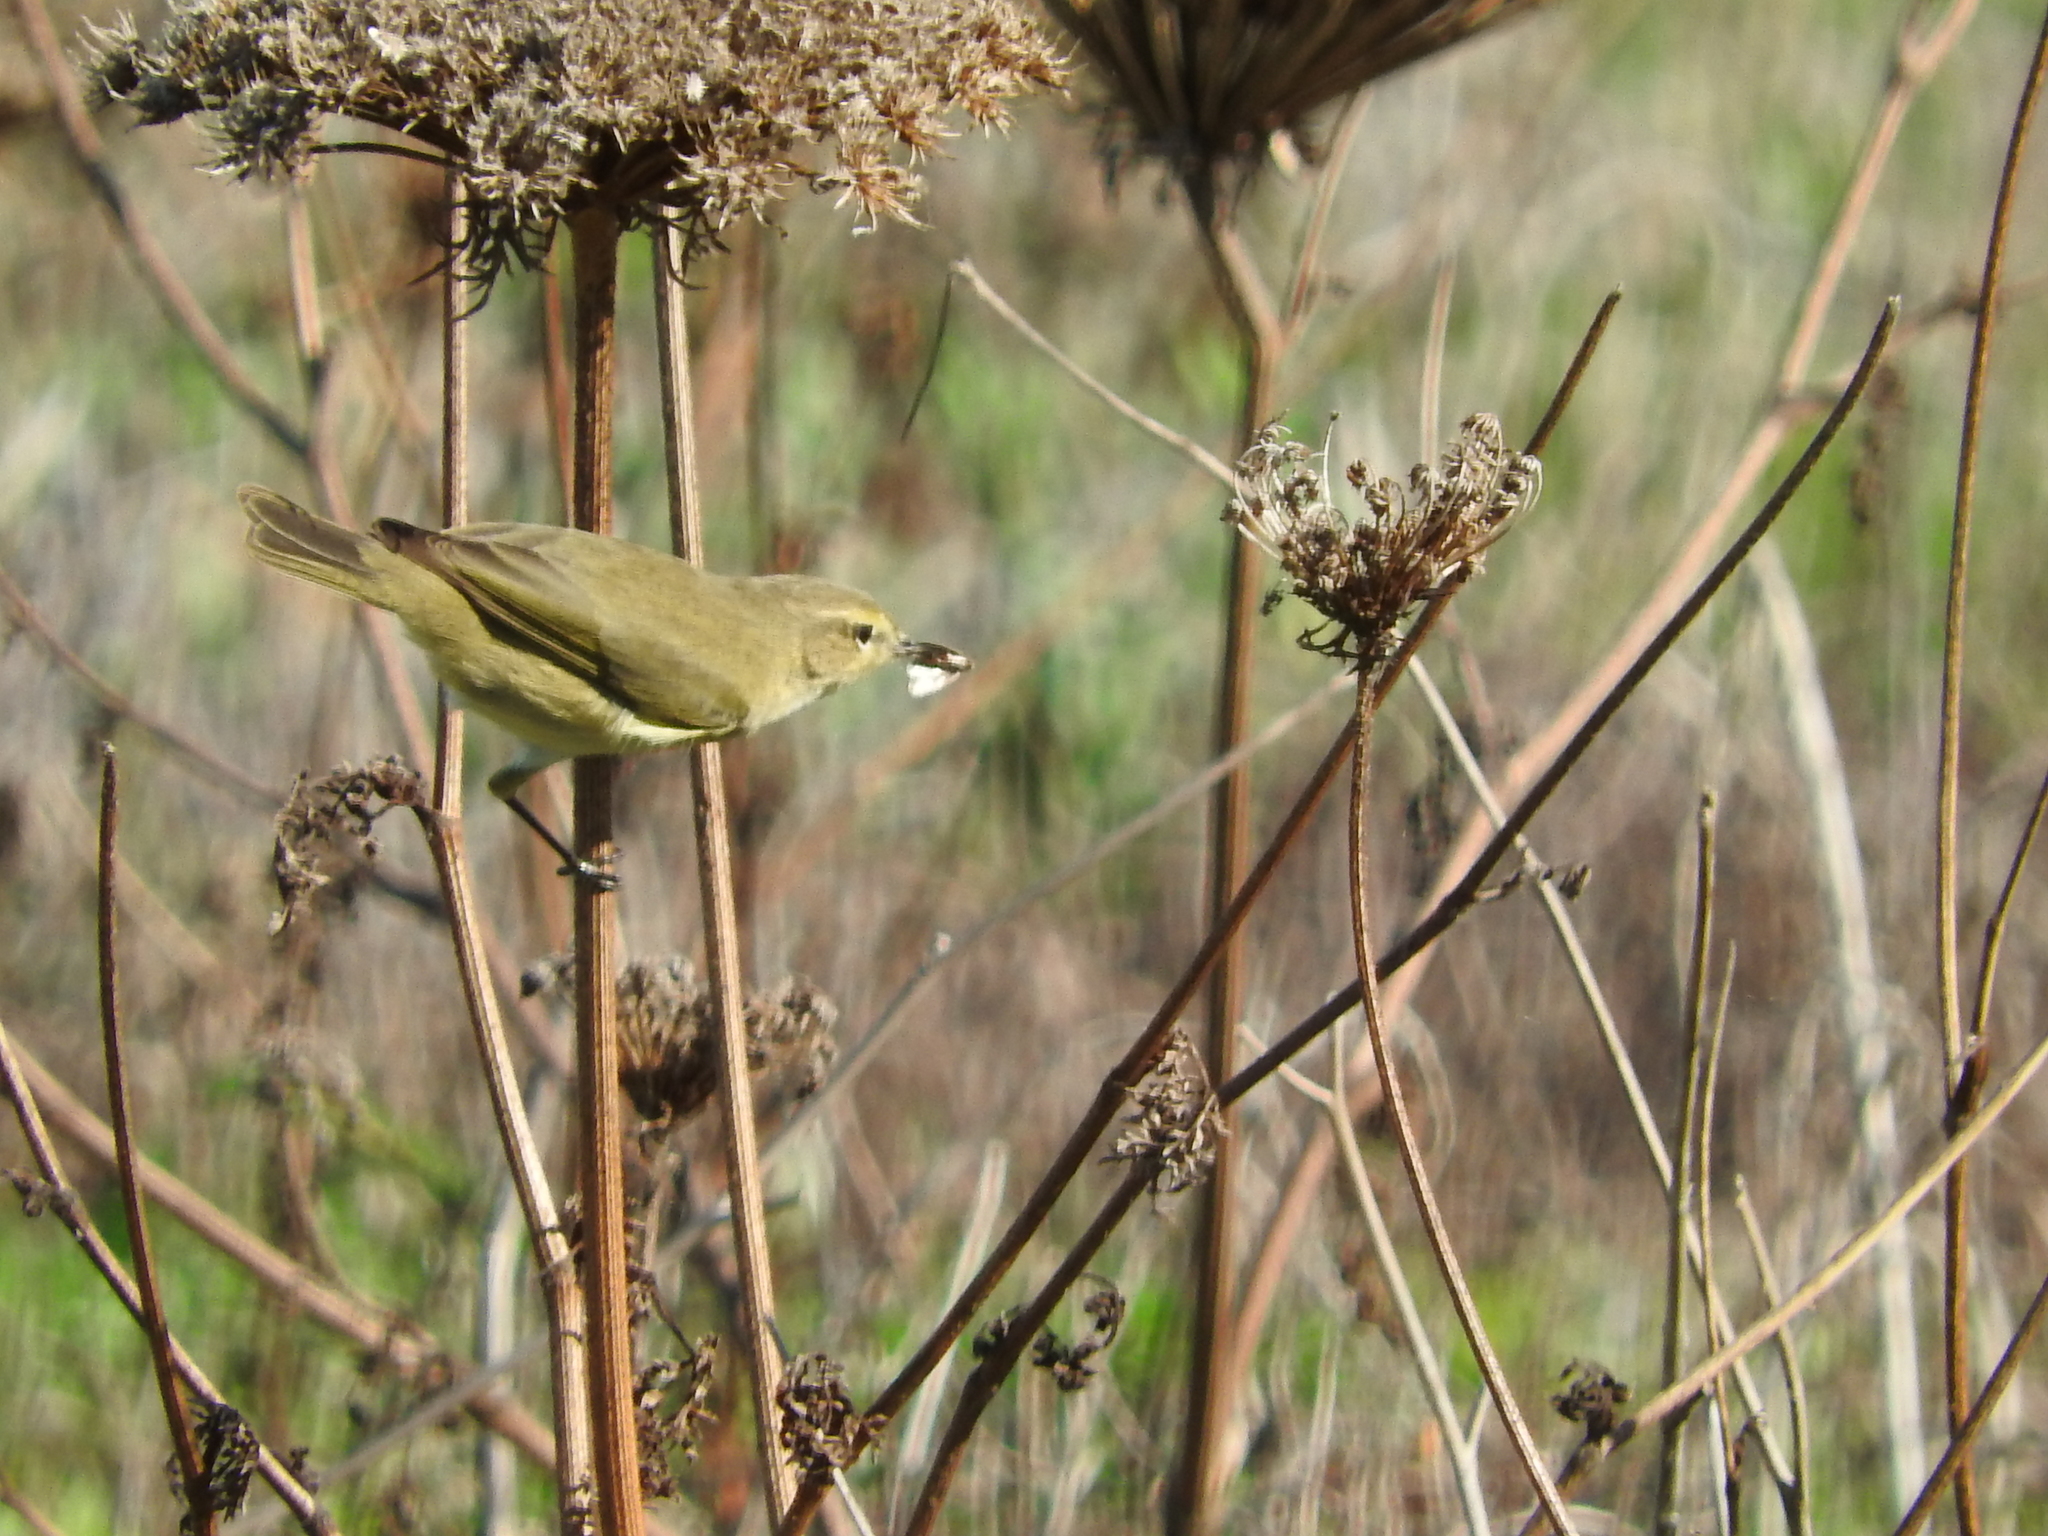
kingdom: Animalia
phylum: Chordata
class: Aves
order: Passeriformes
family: Phylloscopidae
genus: Phylloscopus
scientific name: Phylloscopus collybita
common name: Common chiffchaff
